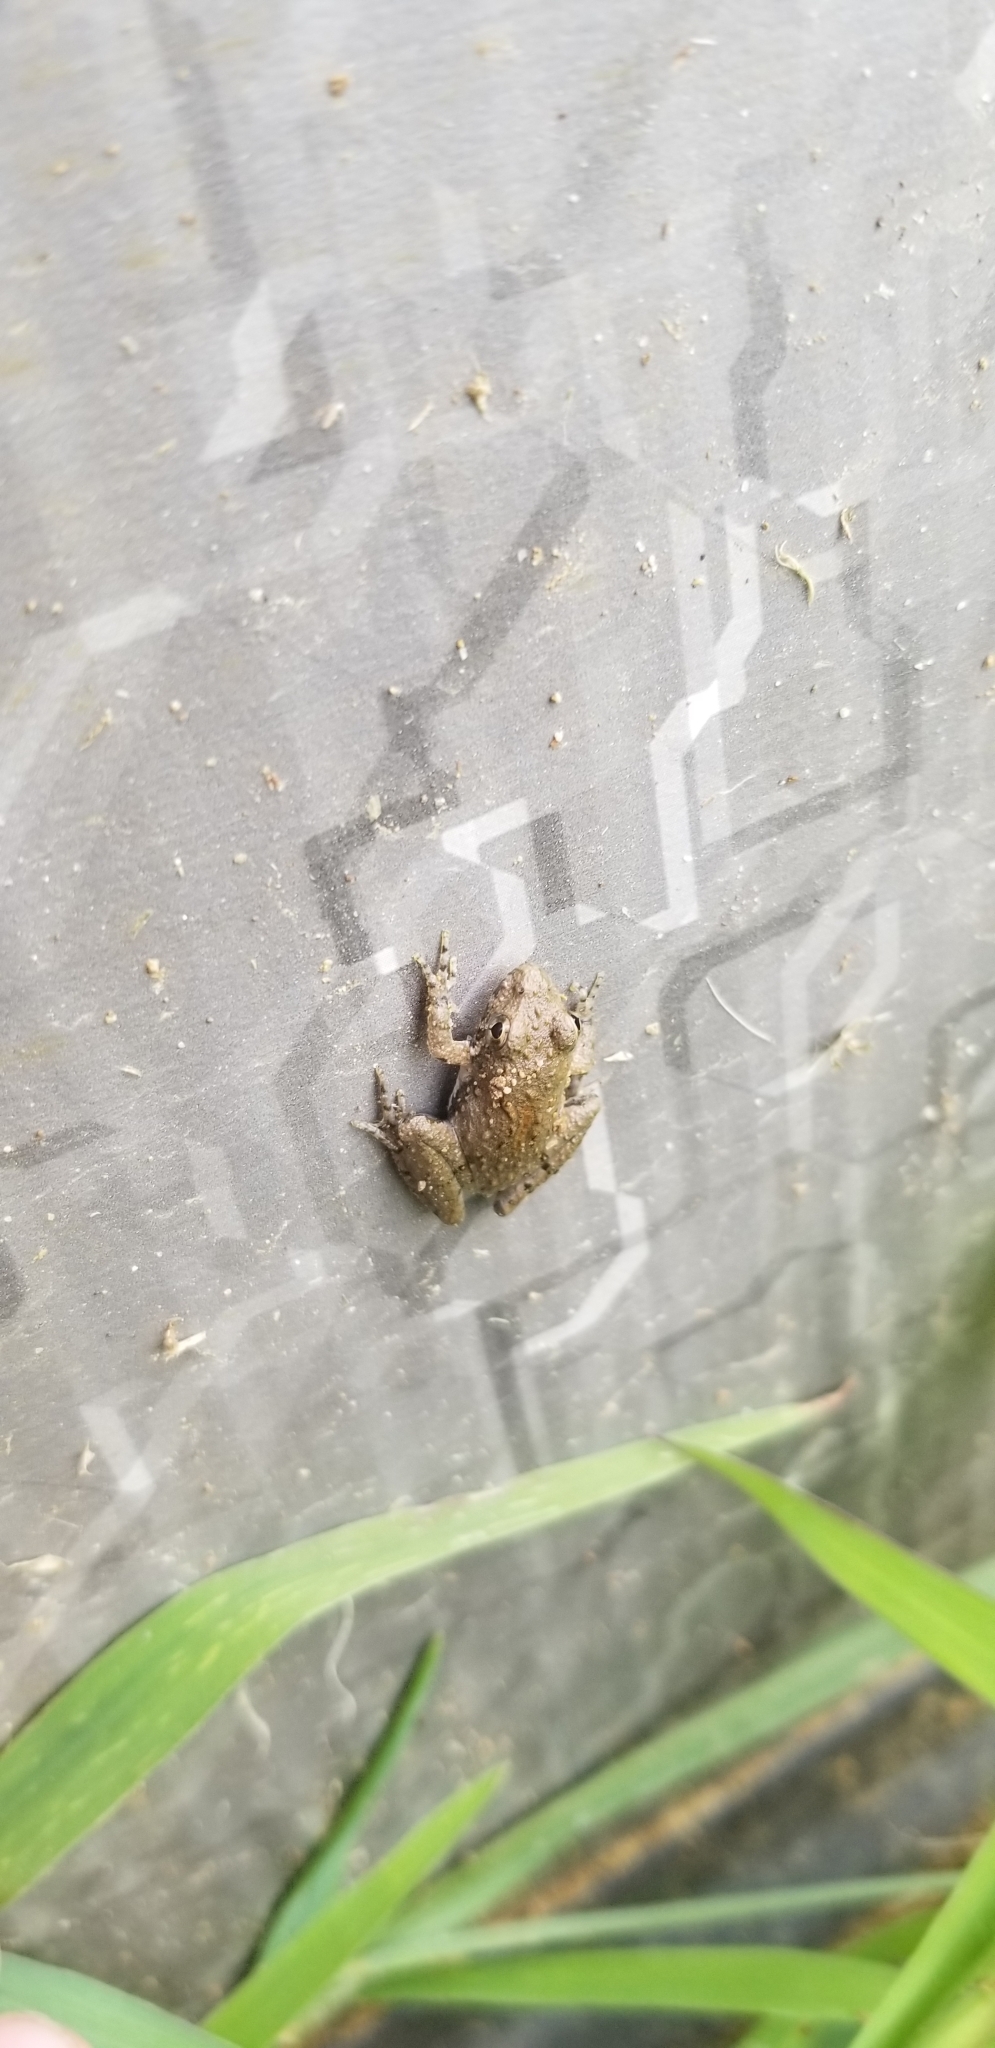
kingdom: Animalia
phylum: Chordata
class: Amphibia
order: Anura
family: Hylidae
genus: Acris
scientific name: Acris blanchardi
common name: Blanchard's cricket frog
